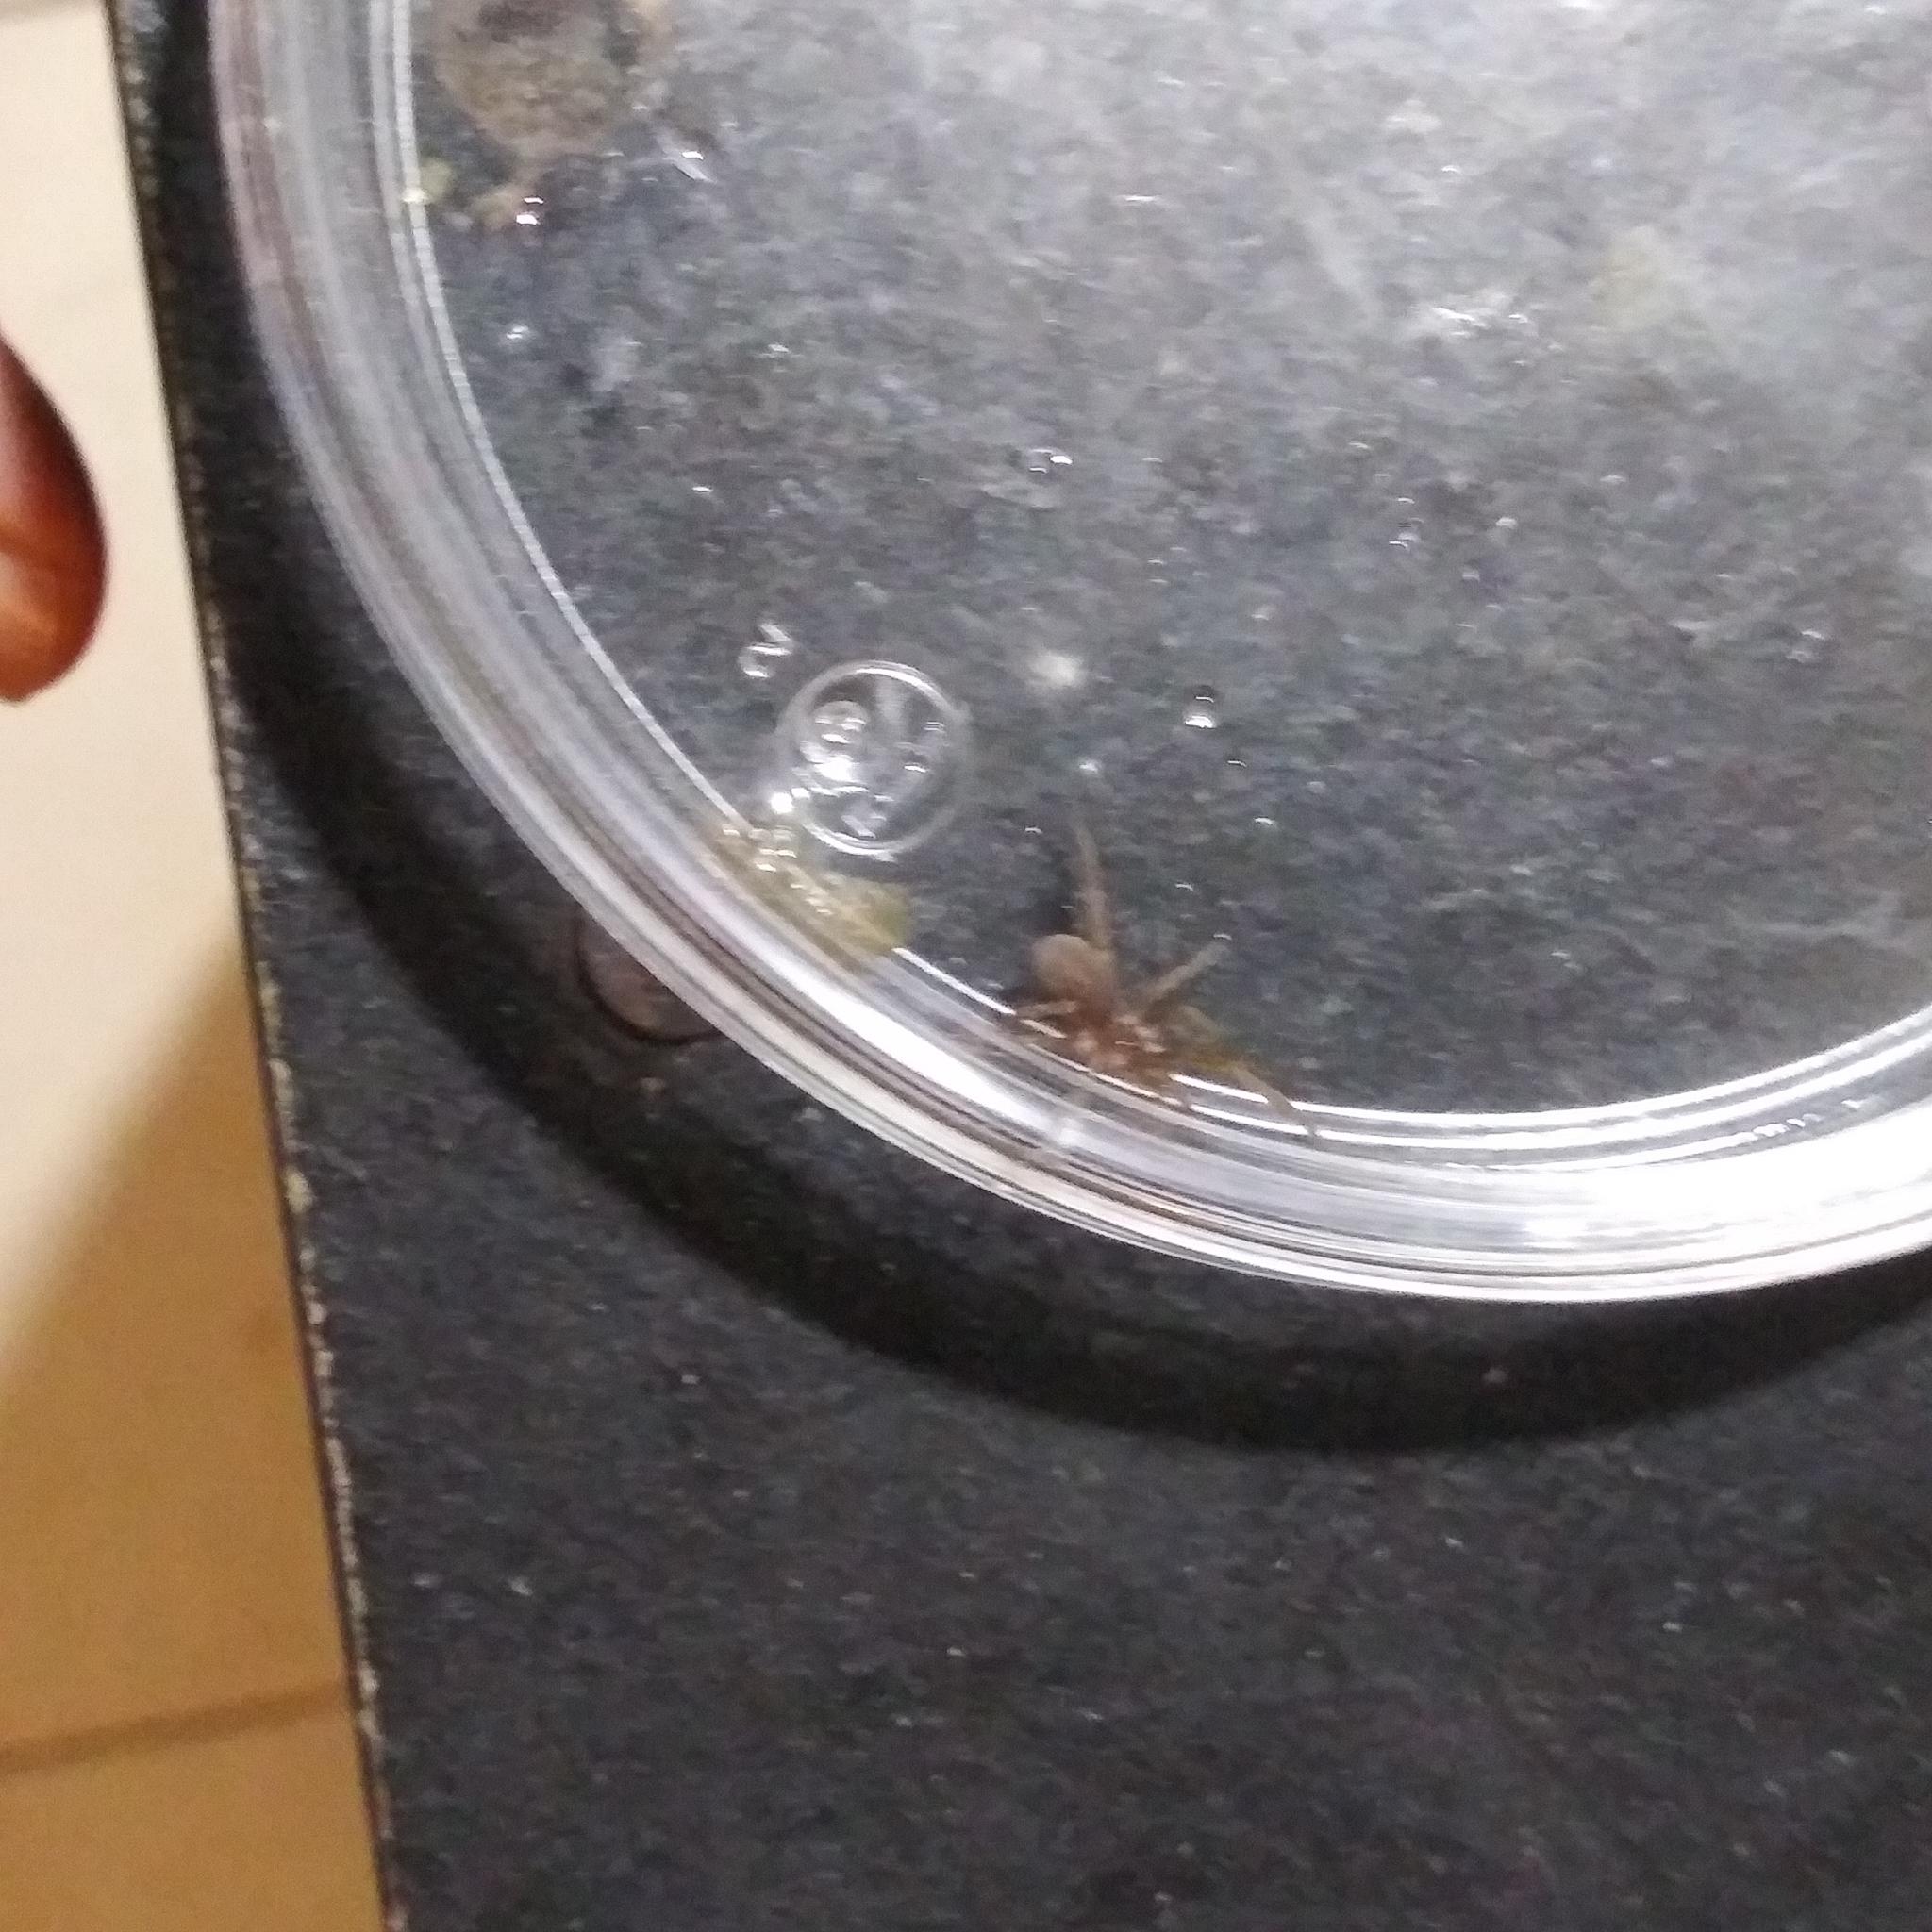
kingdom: Animalia
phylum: Arthropoda
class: Arachnida
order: Araneae
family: Filistatidae
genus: Kukulcania
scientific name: Kukulcania
